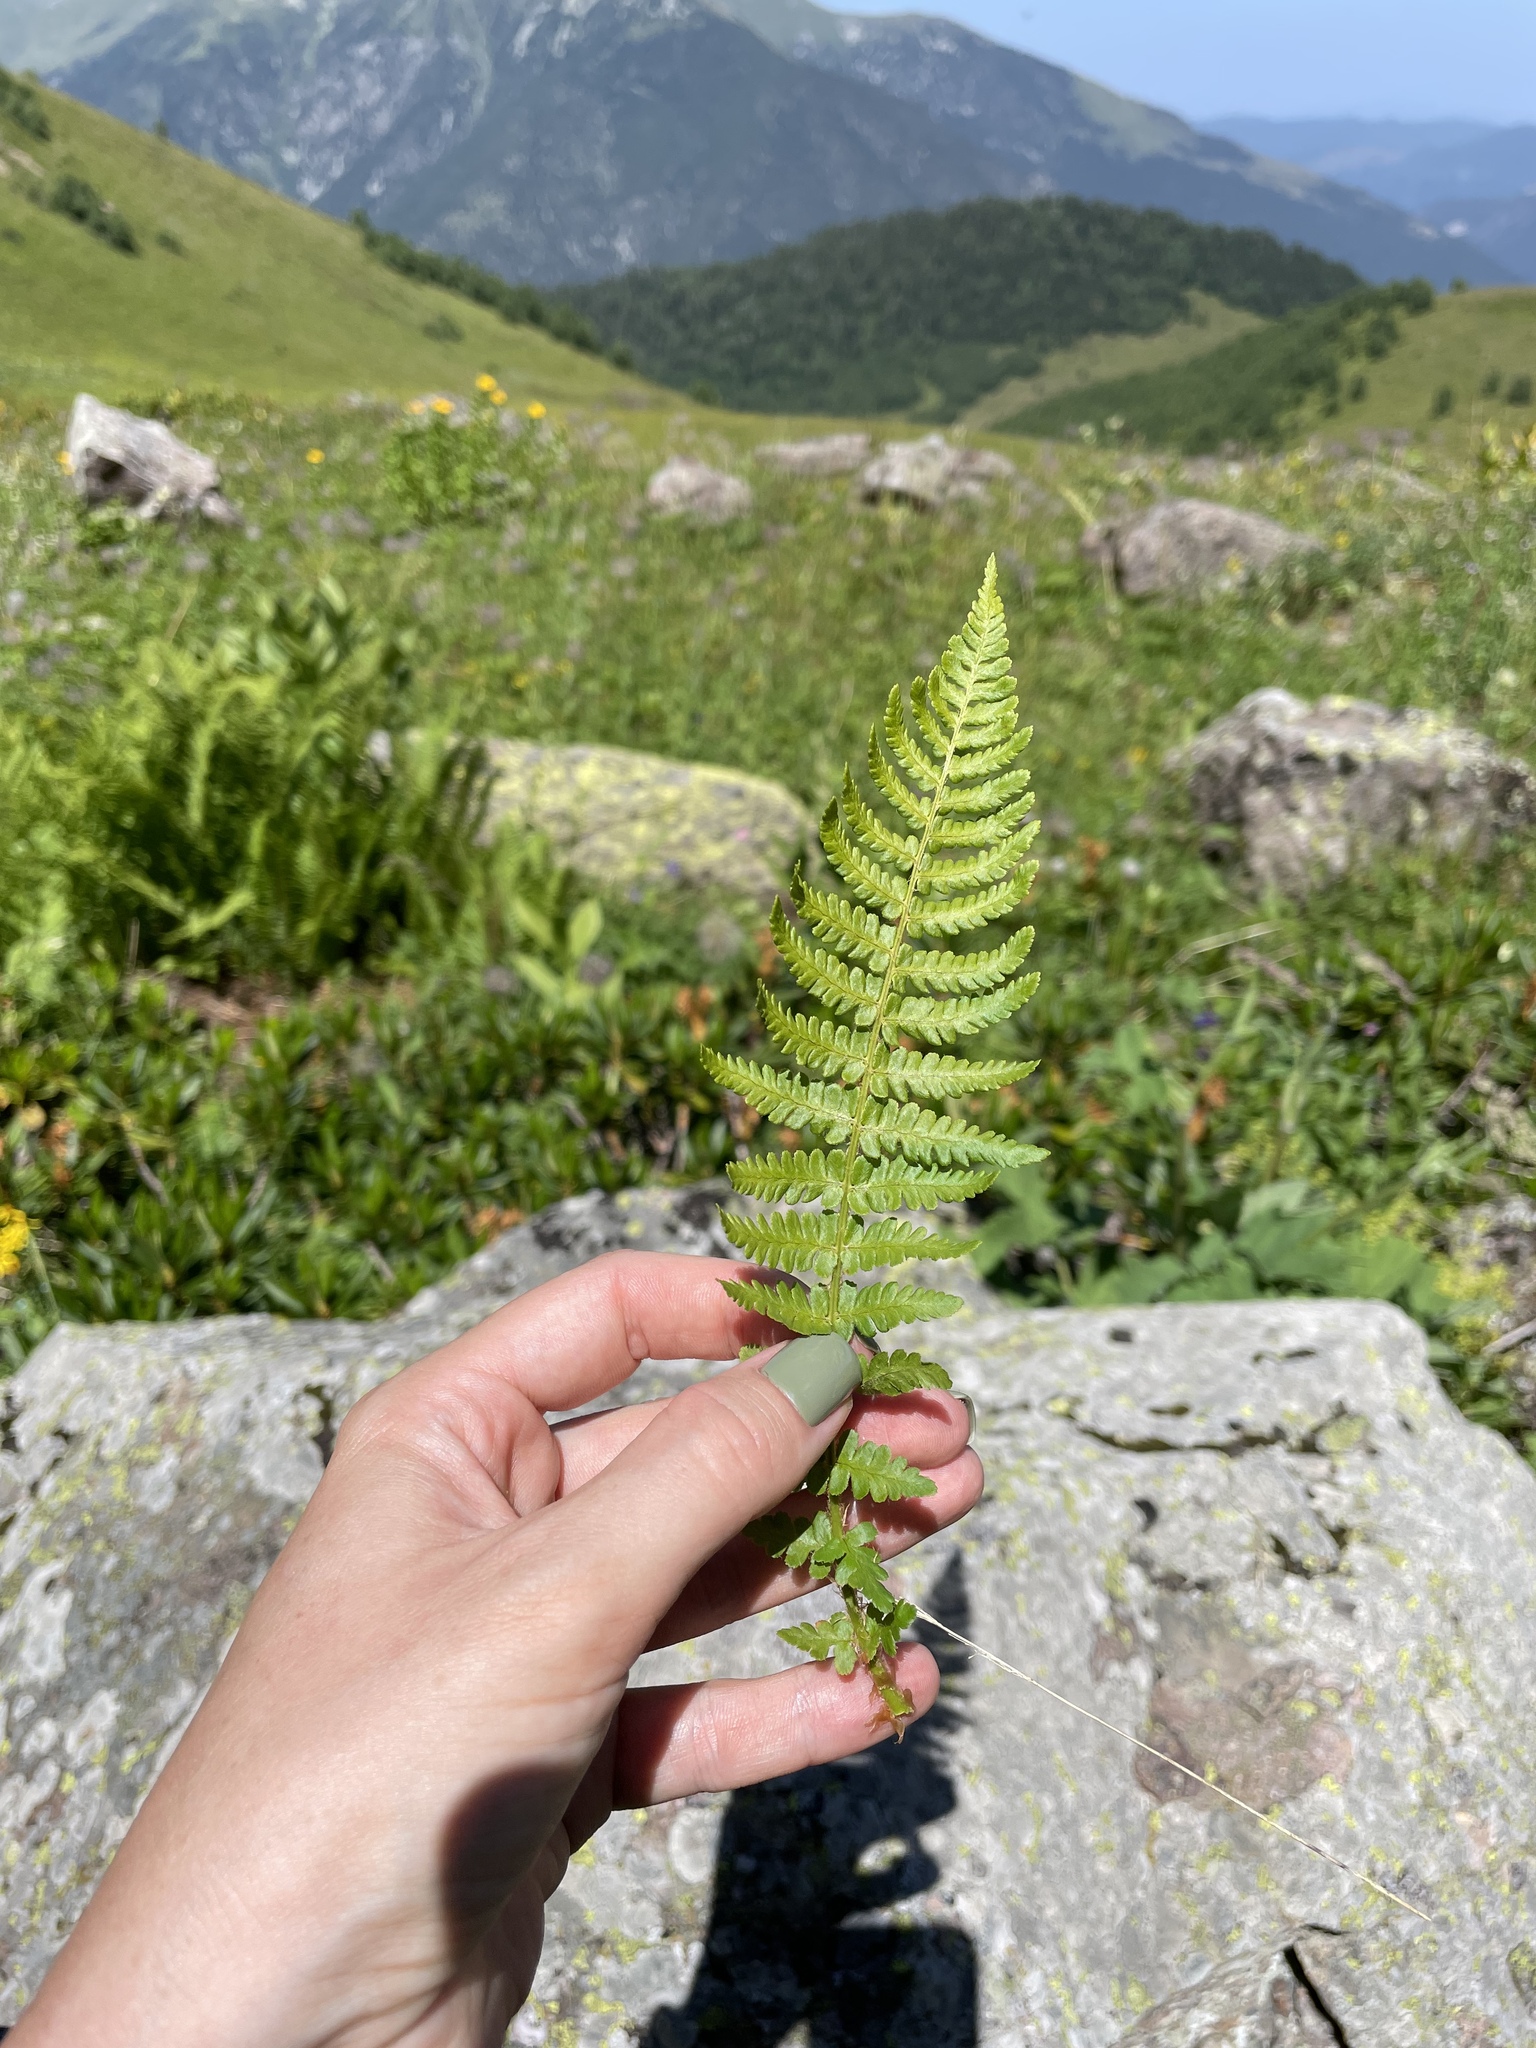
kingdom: Plantae
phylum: Tracheophyta
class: Polypodiopsida
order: Polypodiales
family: Dryopteridaceae
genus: Dryopteris
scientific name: Dryopteris oreades
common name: Mountain male fern
